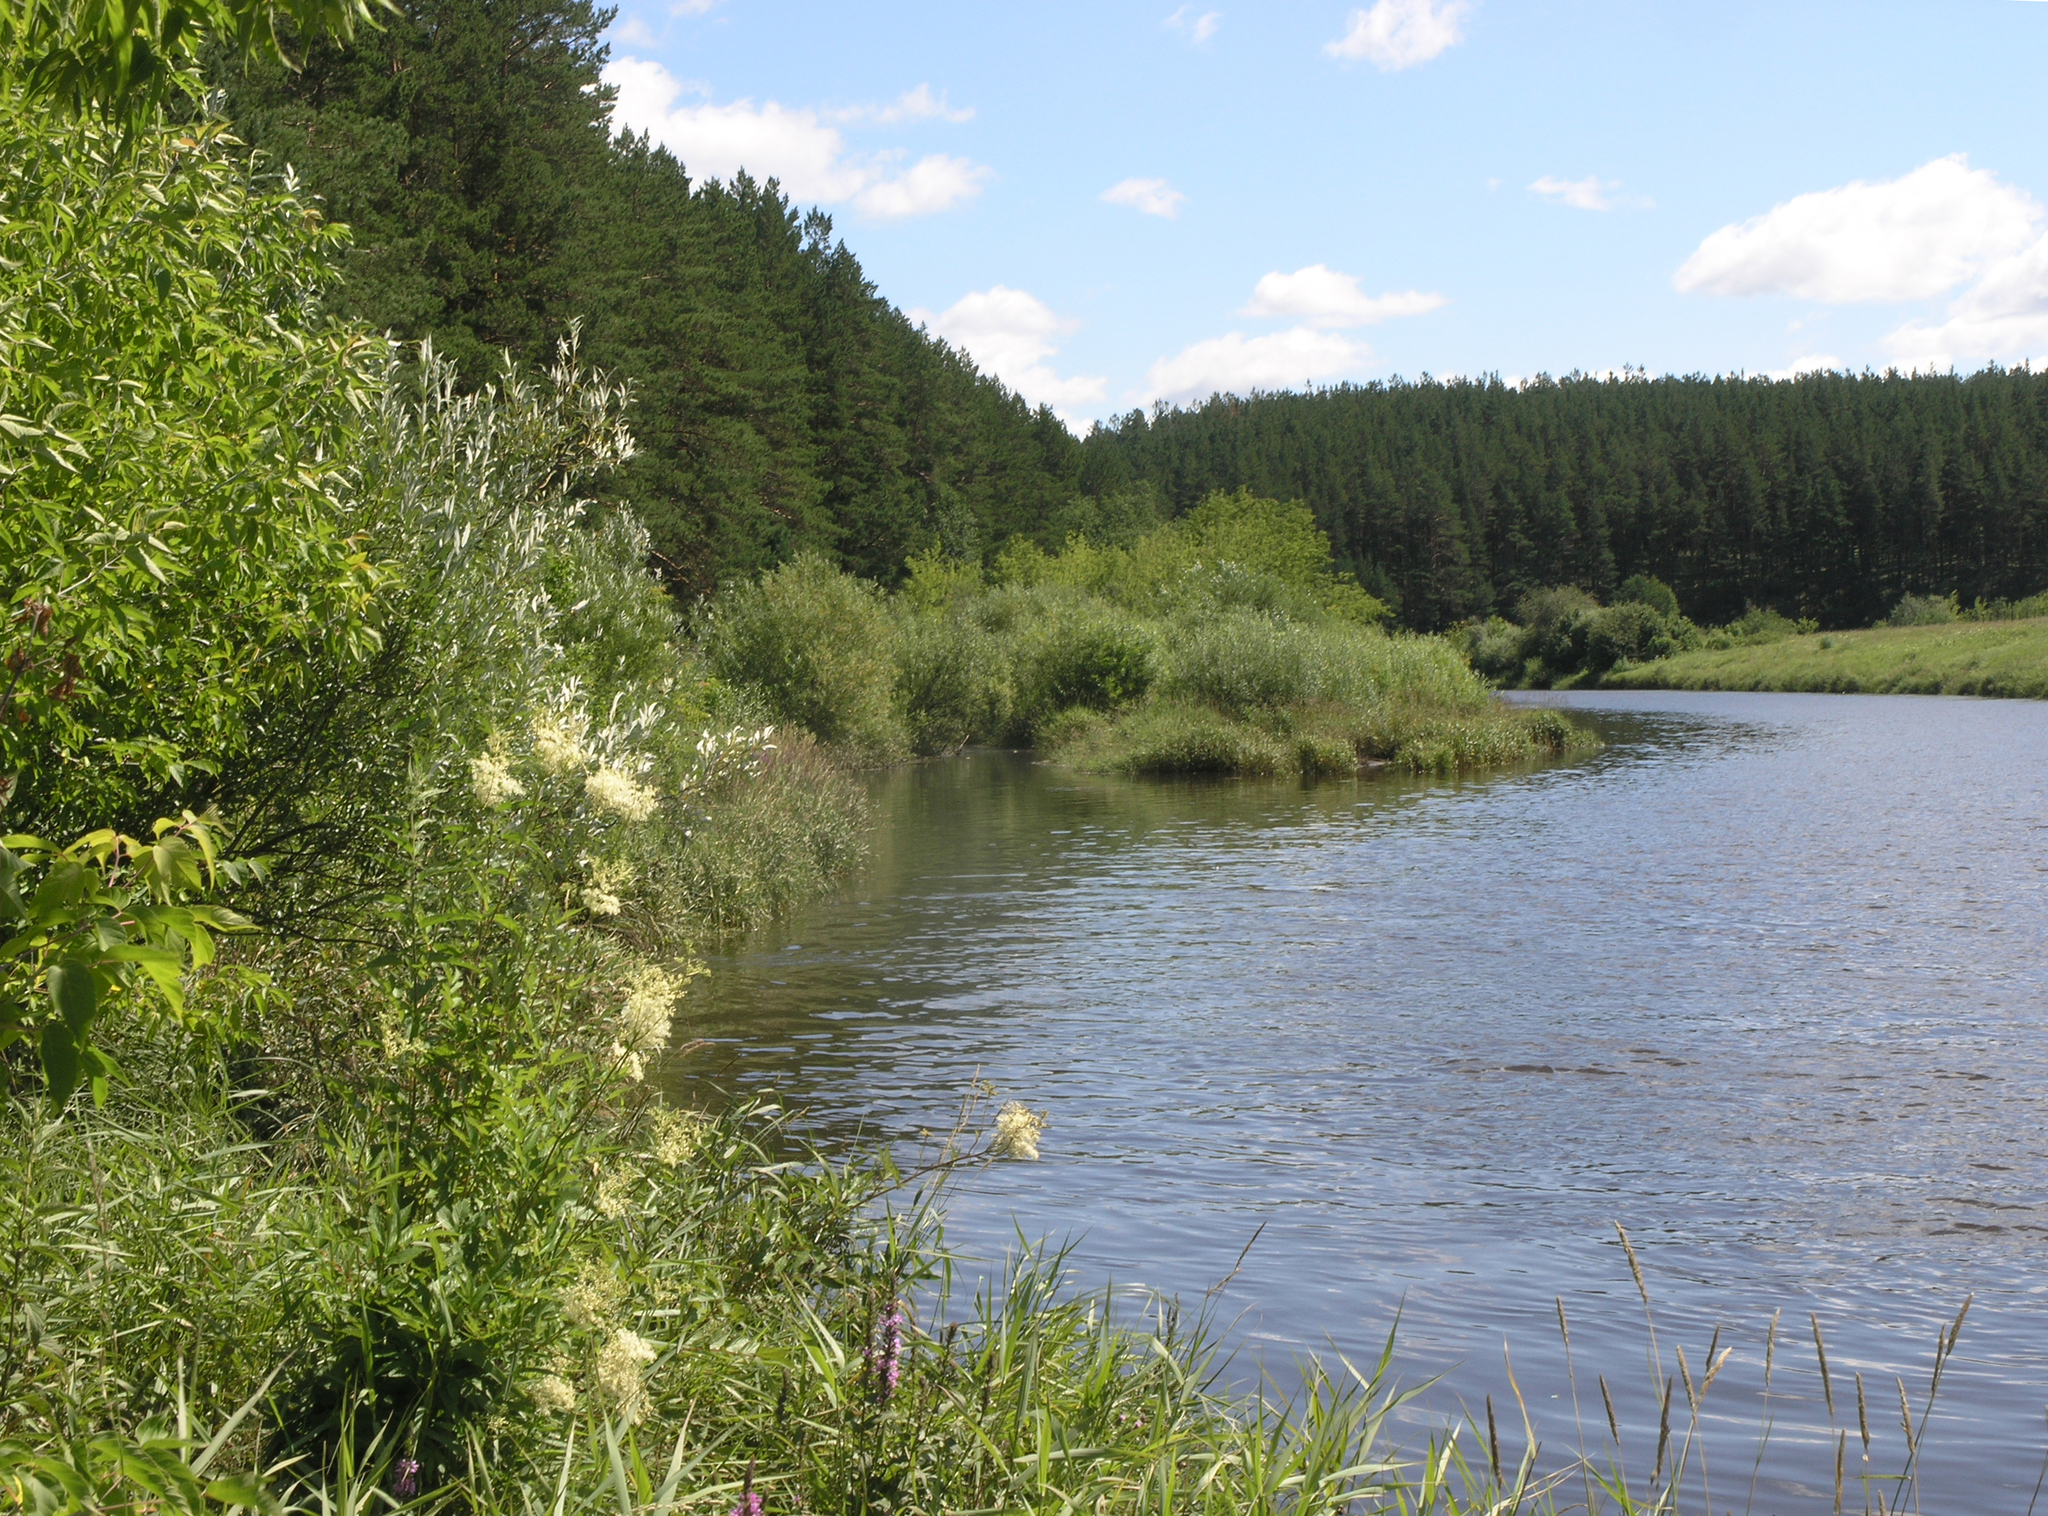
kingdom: Plantae
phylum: Tracheophyta
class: Magnoliopsida
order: Rosales
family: Rosaceae
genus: Filipendula
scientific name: Filipendula ulmaria
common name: Meadowsweet
